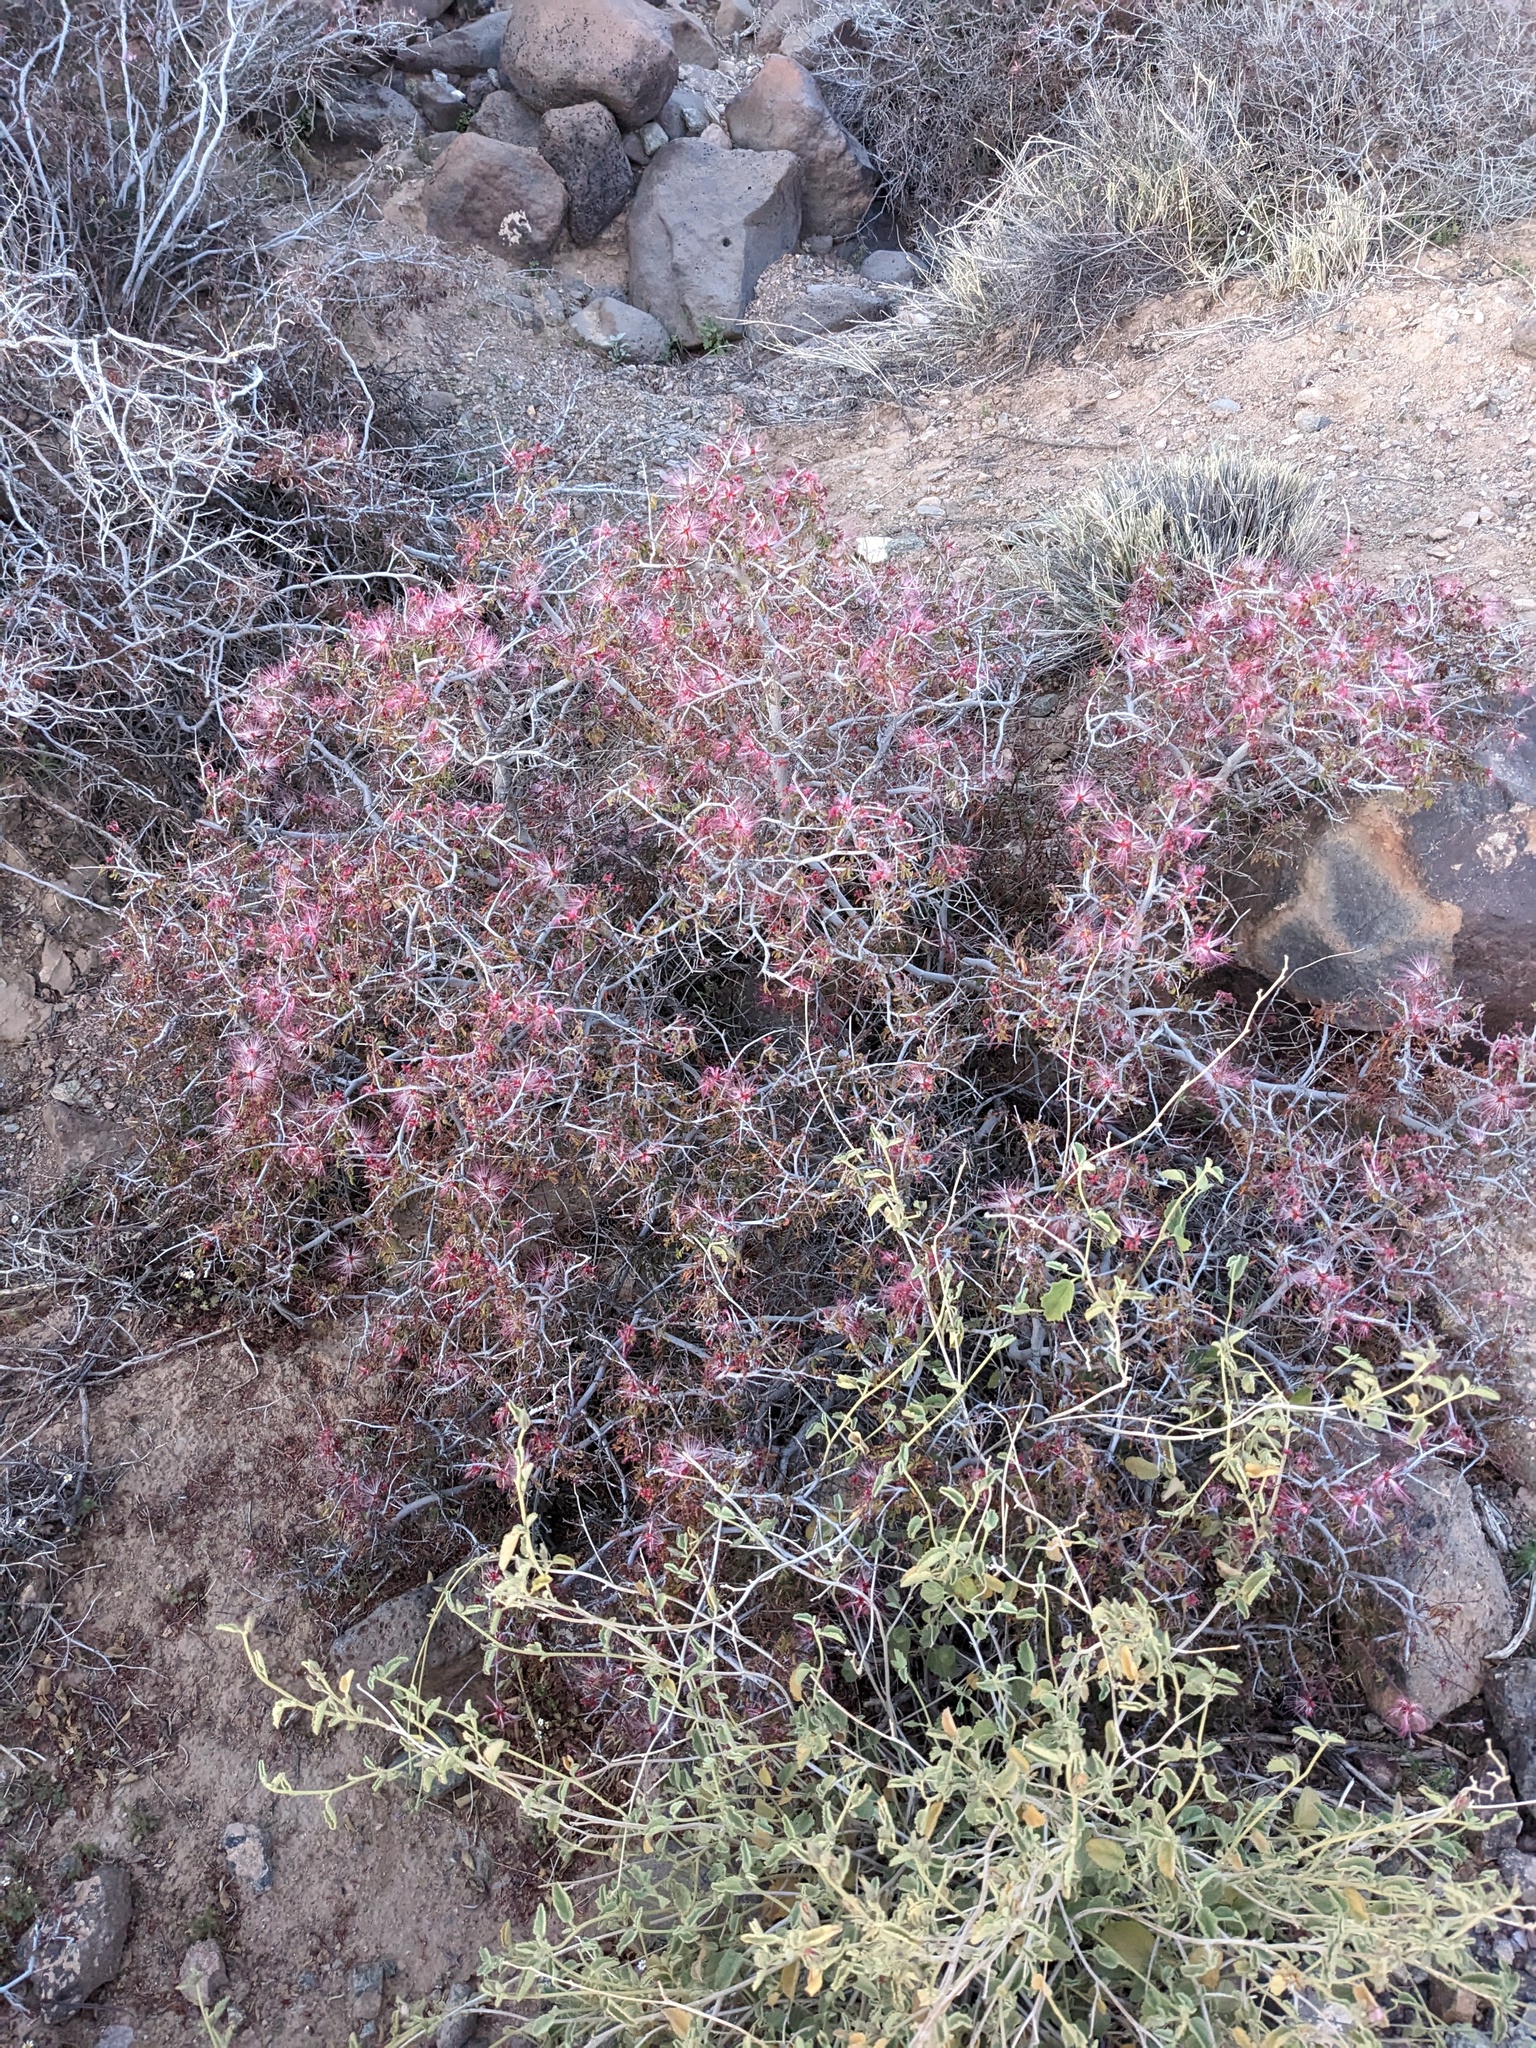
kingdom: Plantae
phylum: Tracheophyta
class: Magnoliopsida
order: Fabales
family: Fabaceae
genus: Calliandra
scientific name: Calliandra eriophylla
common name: Fairy-duster
